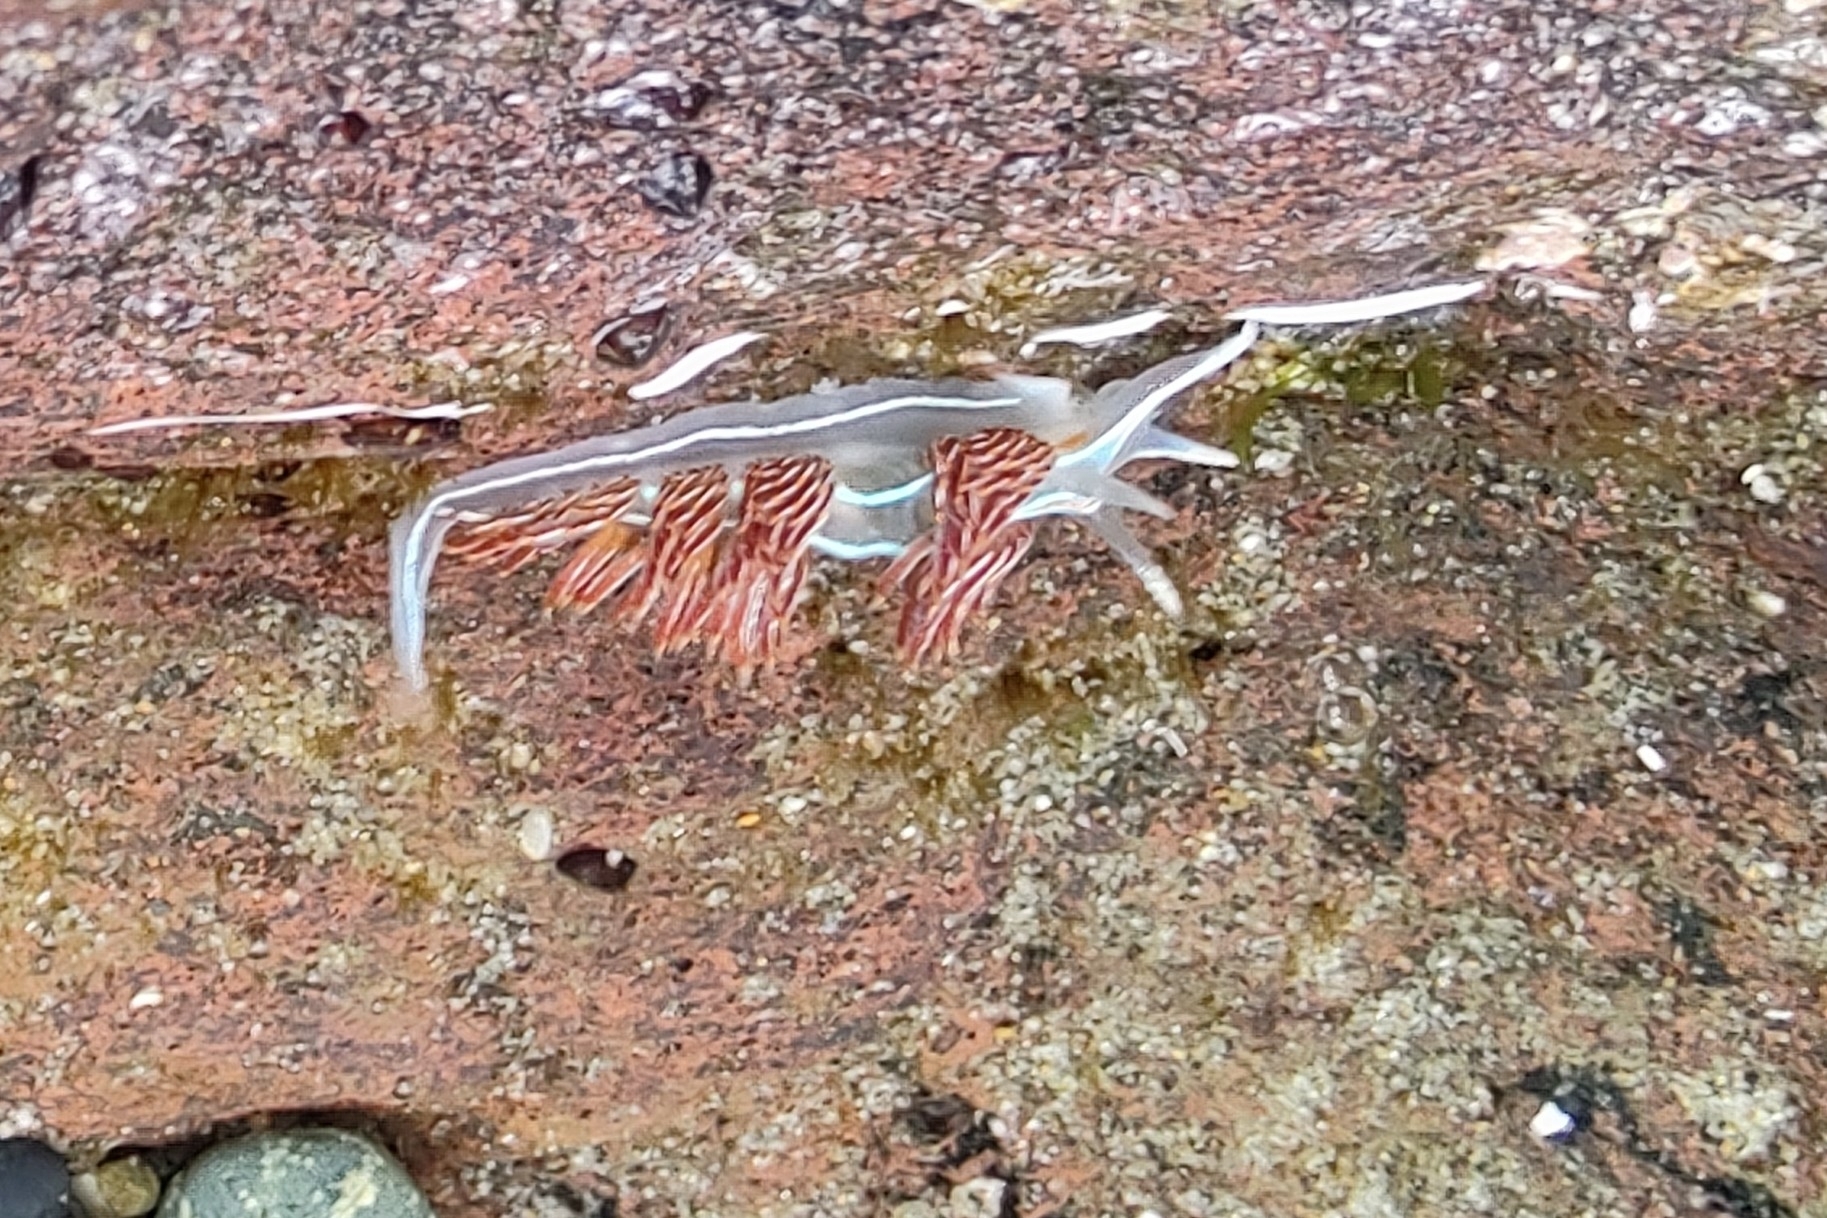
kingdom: Animalia
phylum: Mollusca
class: Gastropoda
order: Nudibranchia
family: Myrrhinidae
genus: Hermissenda
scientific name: Hermissenda crassicornis
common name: Hermissenda
